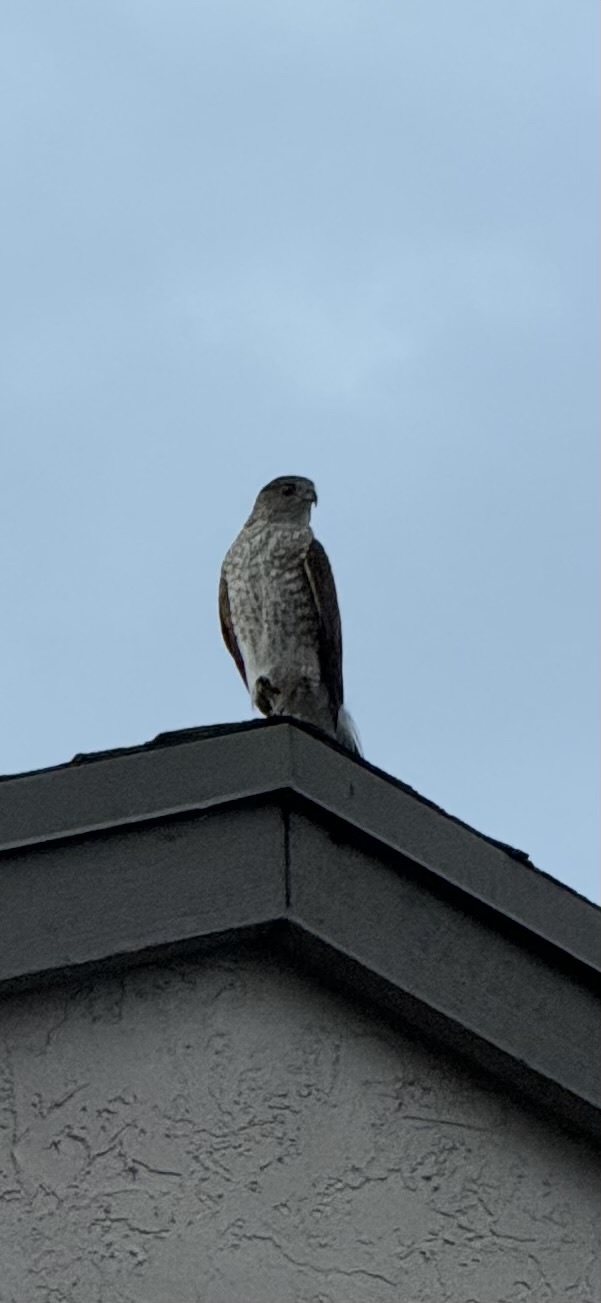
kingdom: Animalia
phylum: Chordata
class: Aves
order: Accipitriformes
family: Accipitridae
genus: Accipiter
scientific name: Accipiter cooperii
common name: Cooper's hawk
